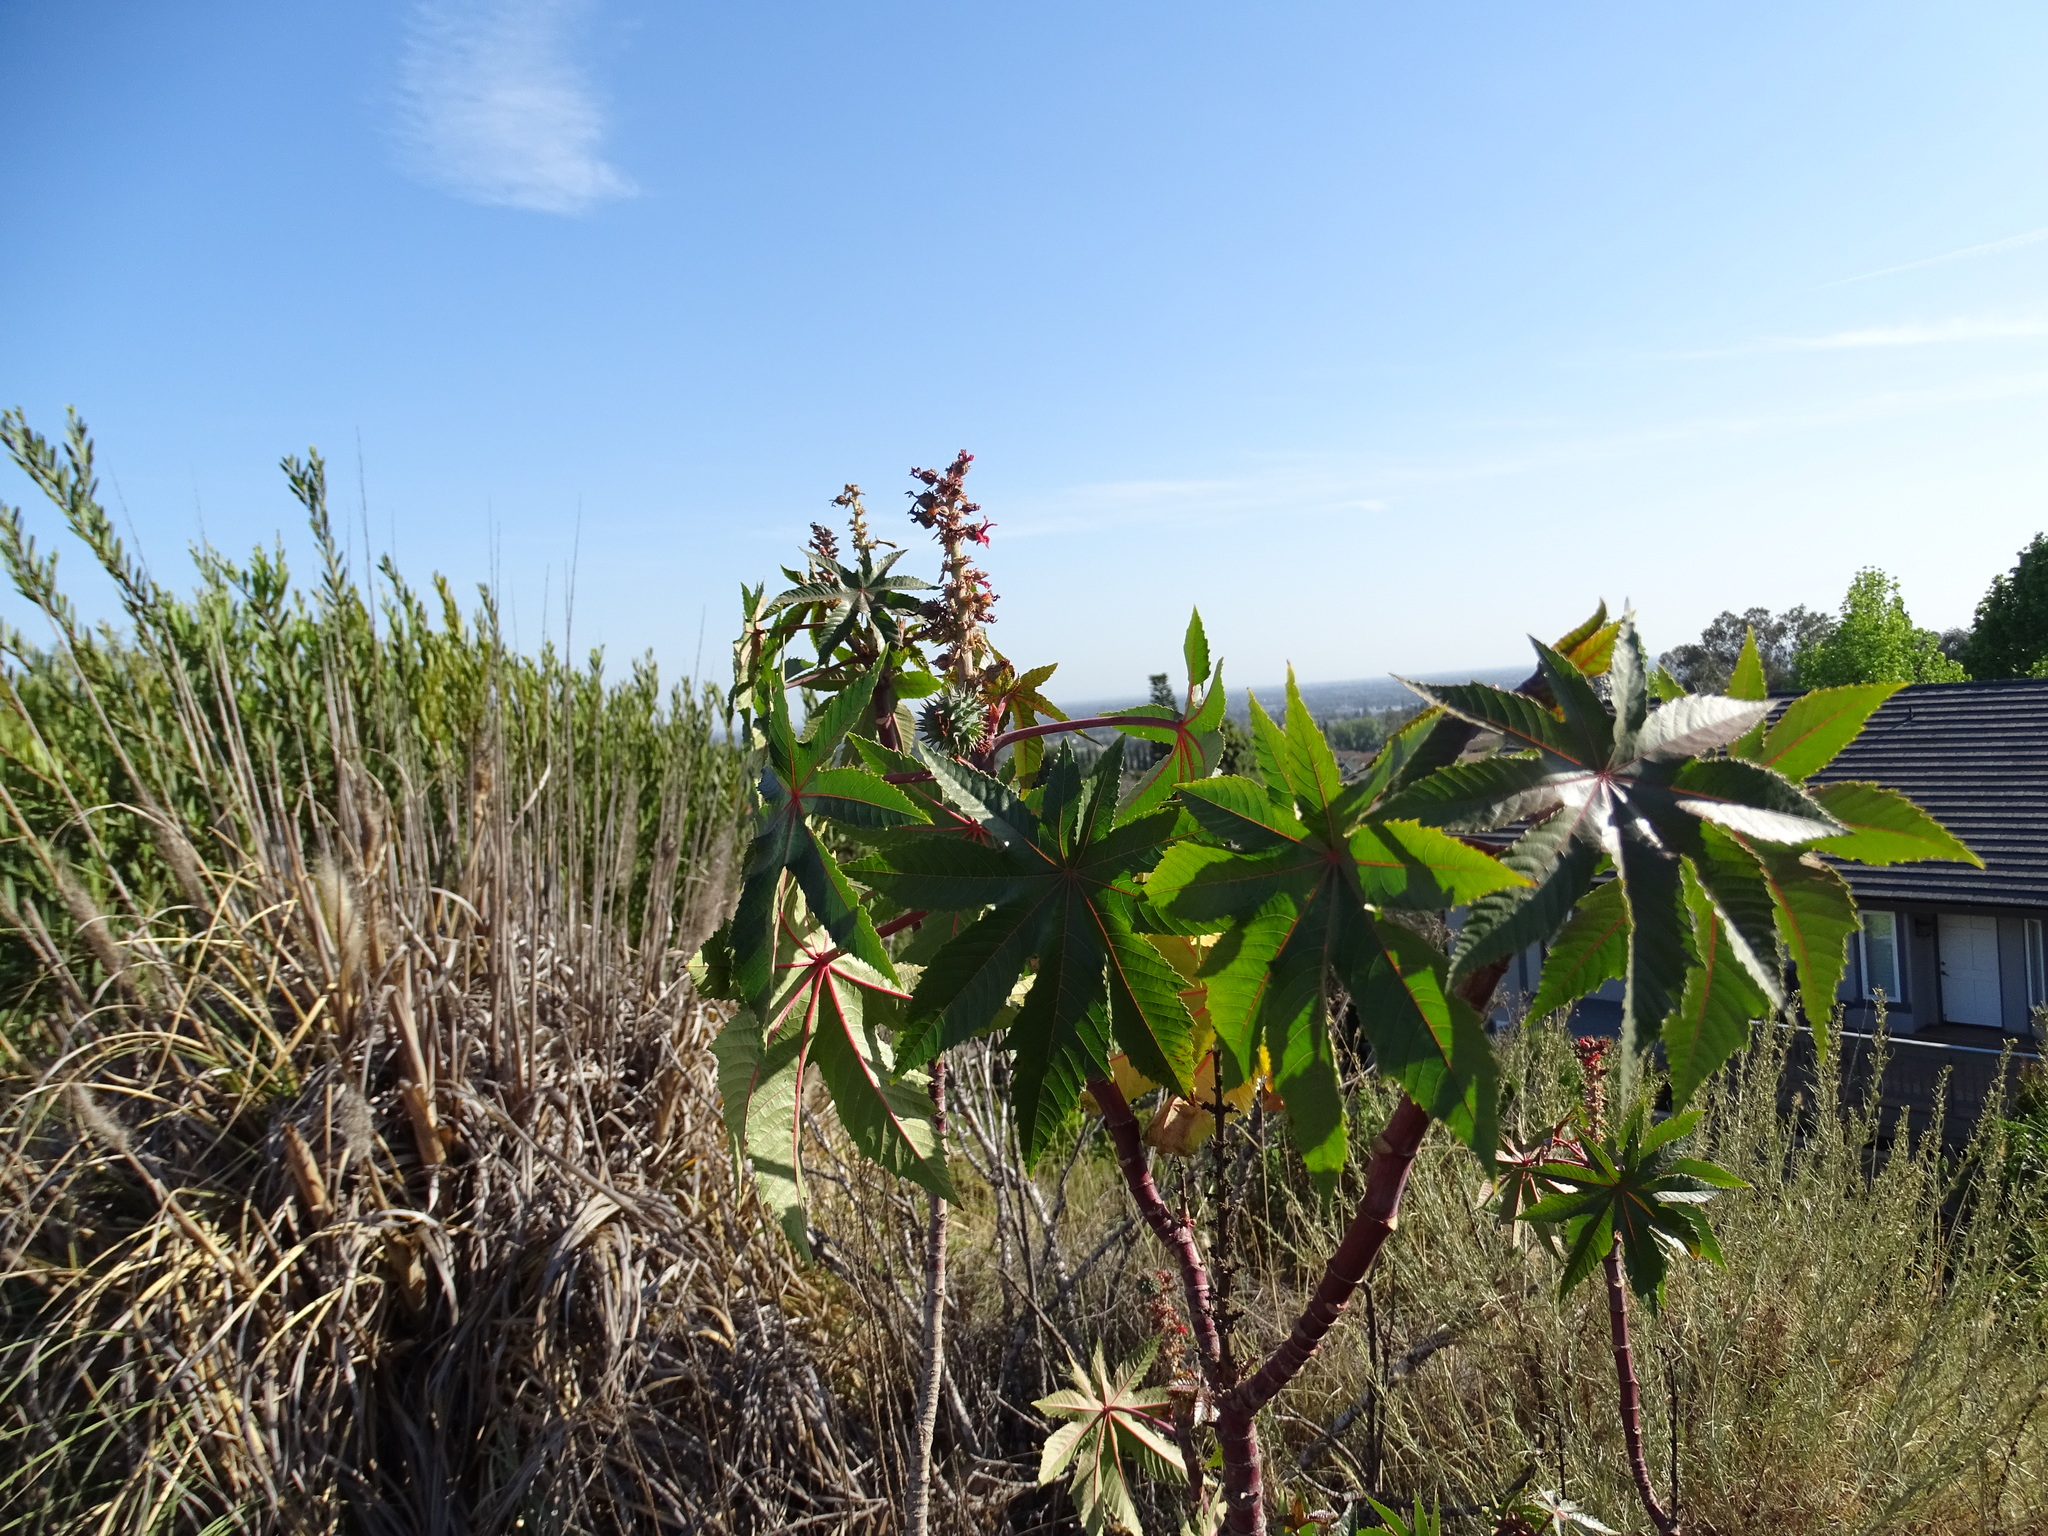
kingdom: Plantae
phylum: Tracheophyta
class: Magnoliopsida
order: Malpighiales
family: Euphorbiaceae
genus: Ricinus
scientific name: Ricinus communis
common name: Castor-oil-plant
